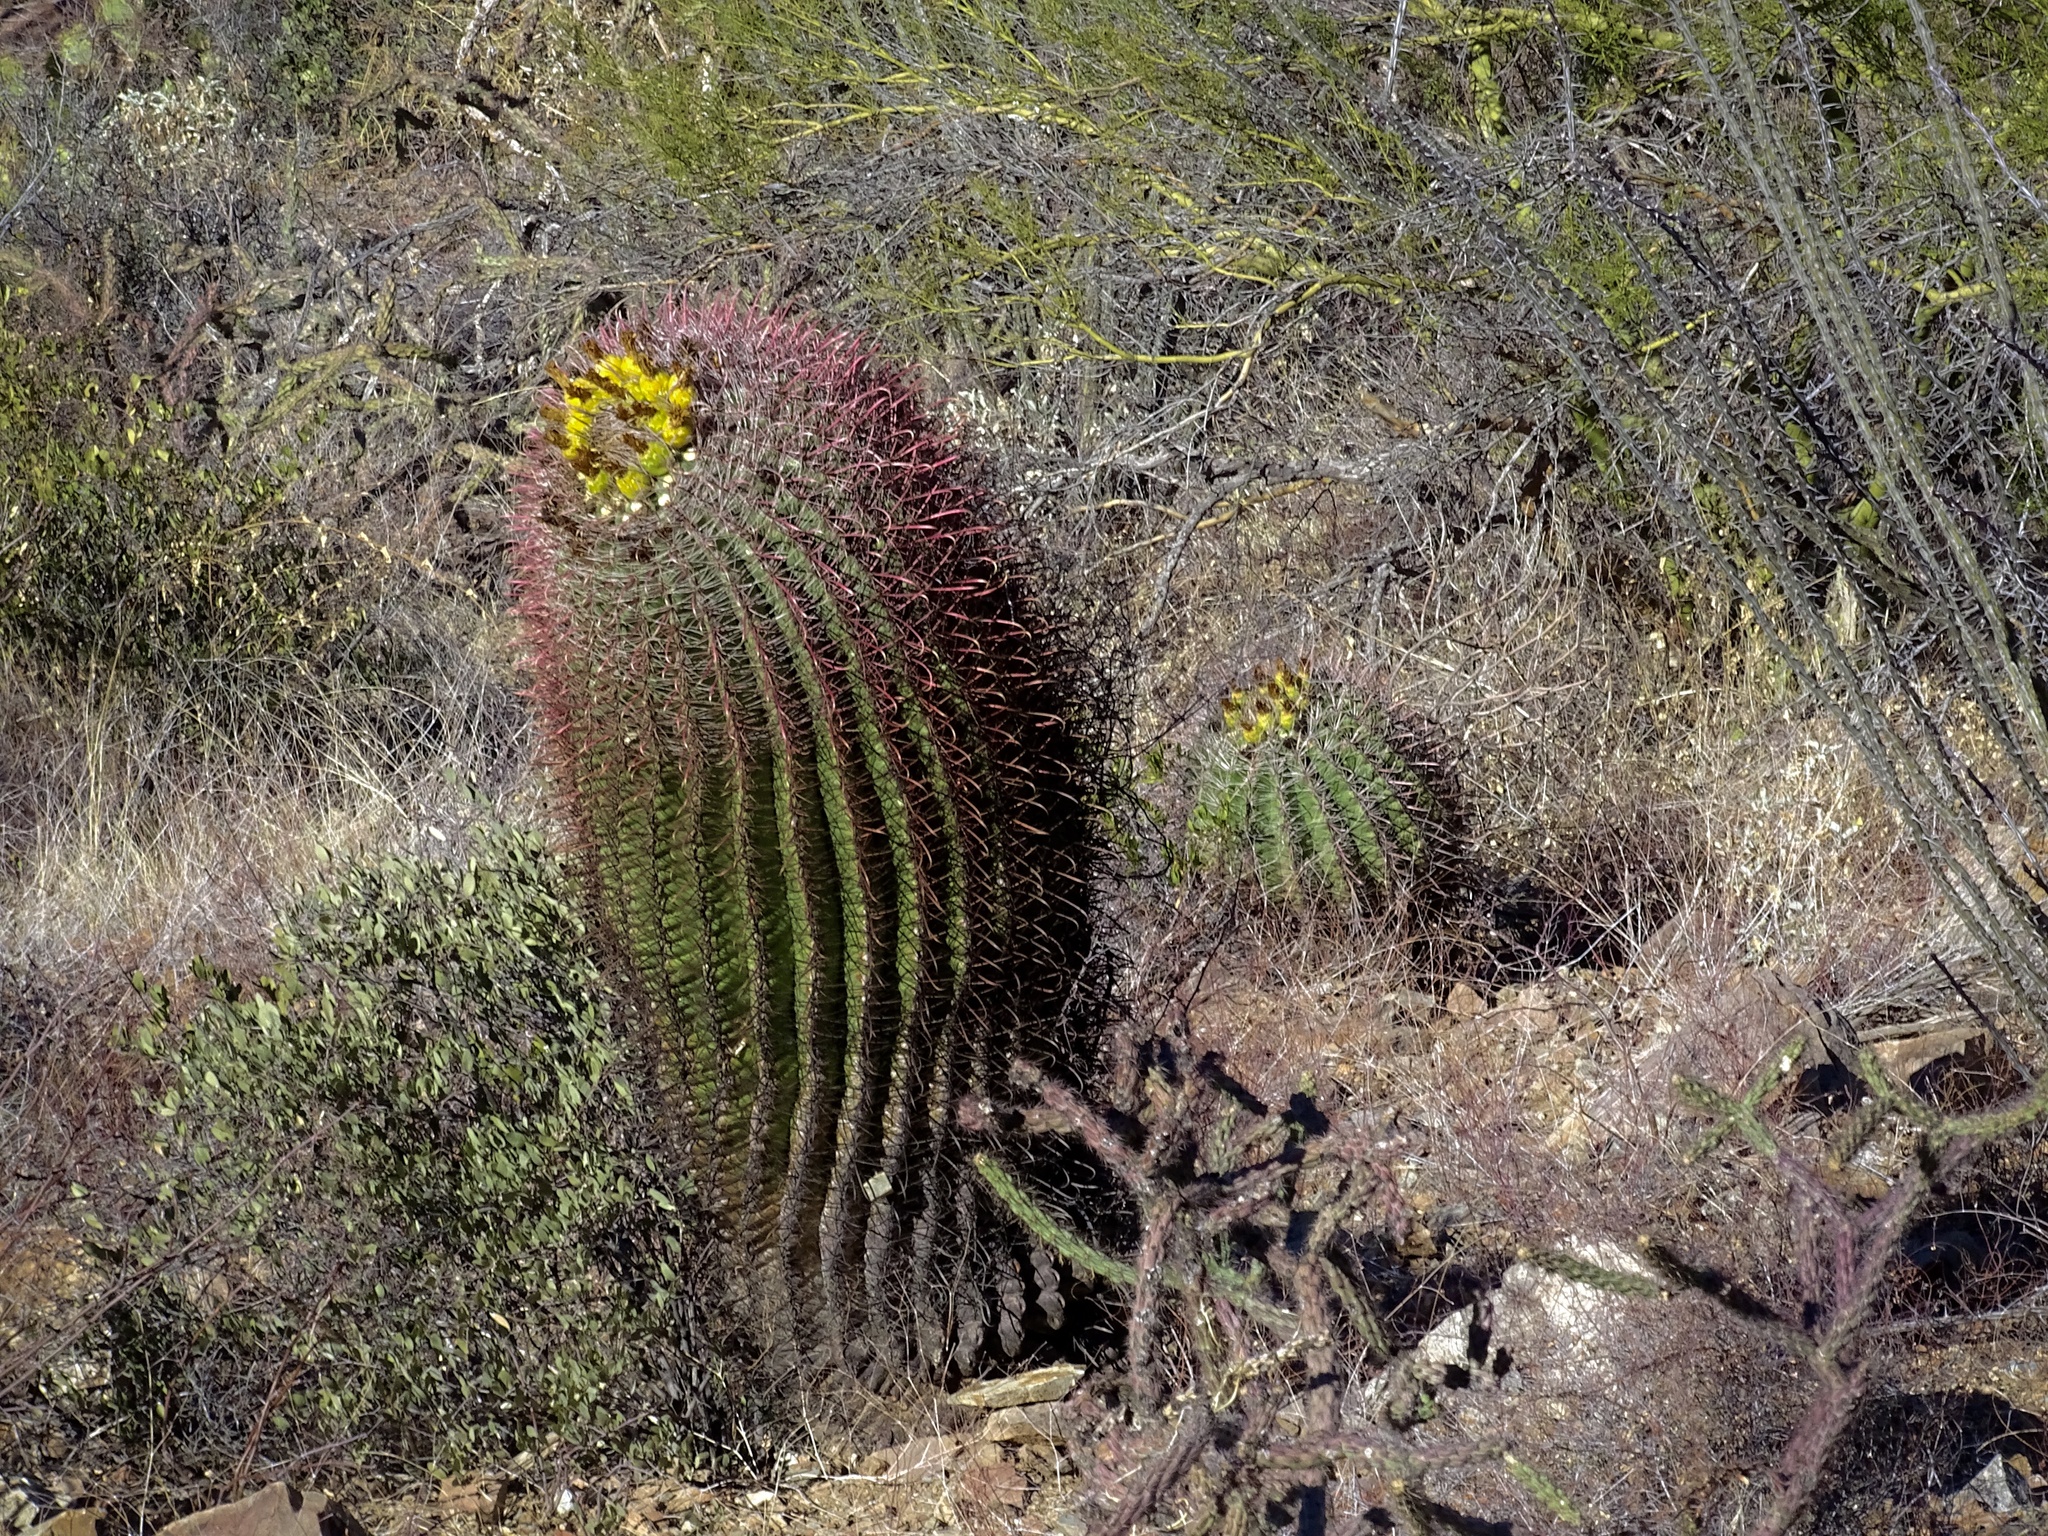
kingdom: Plantae
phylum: Tracheophyta
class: Magnoliopsida
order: Caryophyllales
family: Cactaceae
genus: Ferocactus
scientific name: Ferocactus wislizeni
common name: Candy barrel cactus
